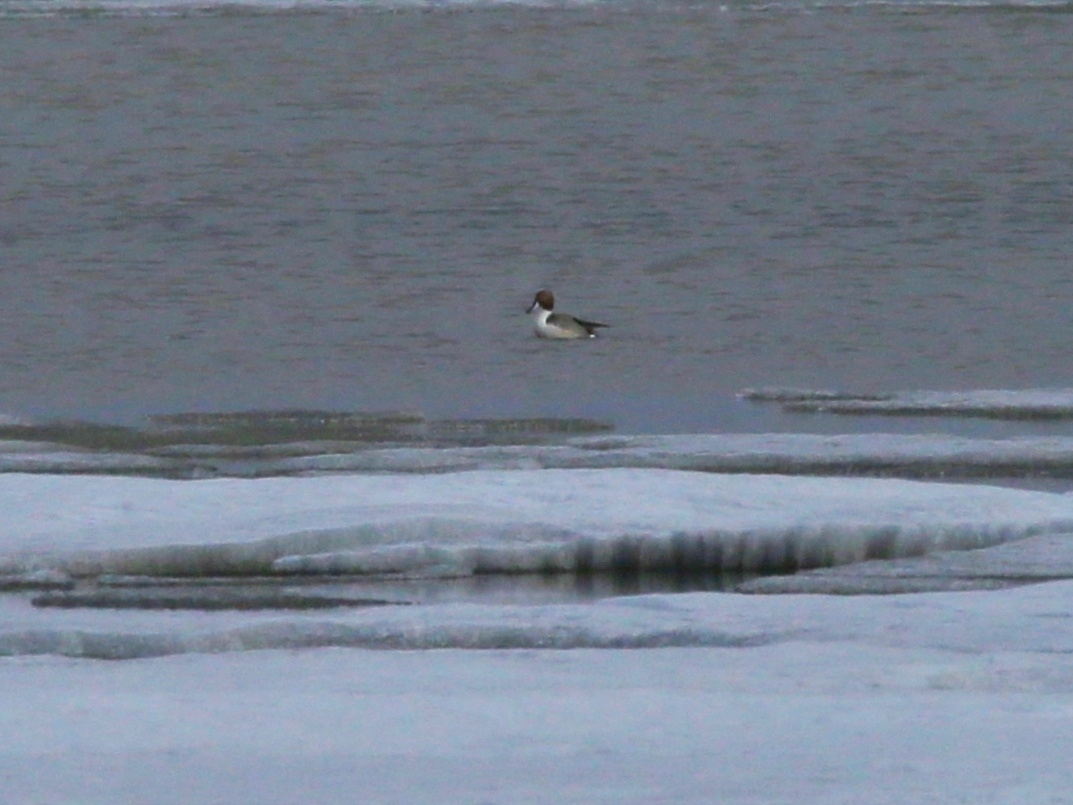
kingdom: Animalia
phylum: Chordata
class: Aves
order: Anseriformes
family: Anatidae
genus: Anas
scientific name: Anas acuta
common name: Northern pintail
